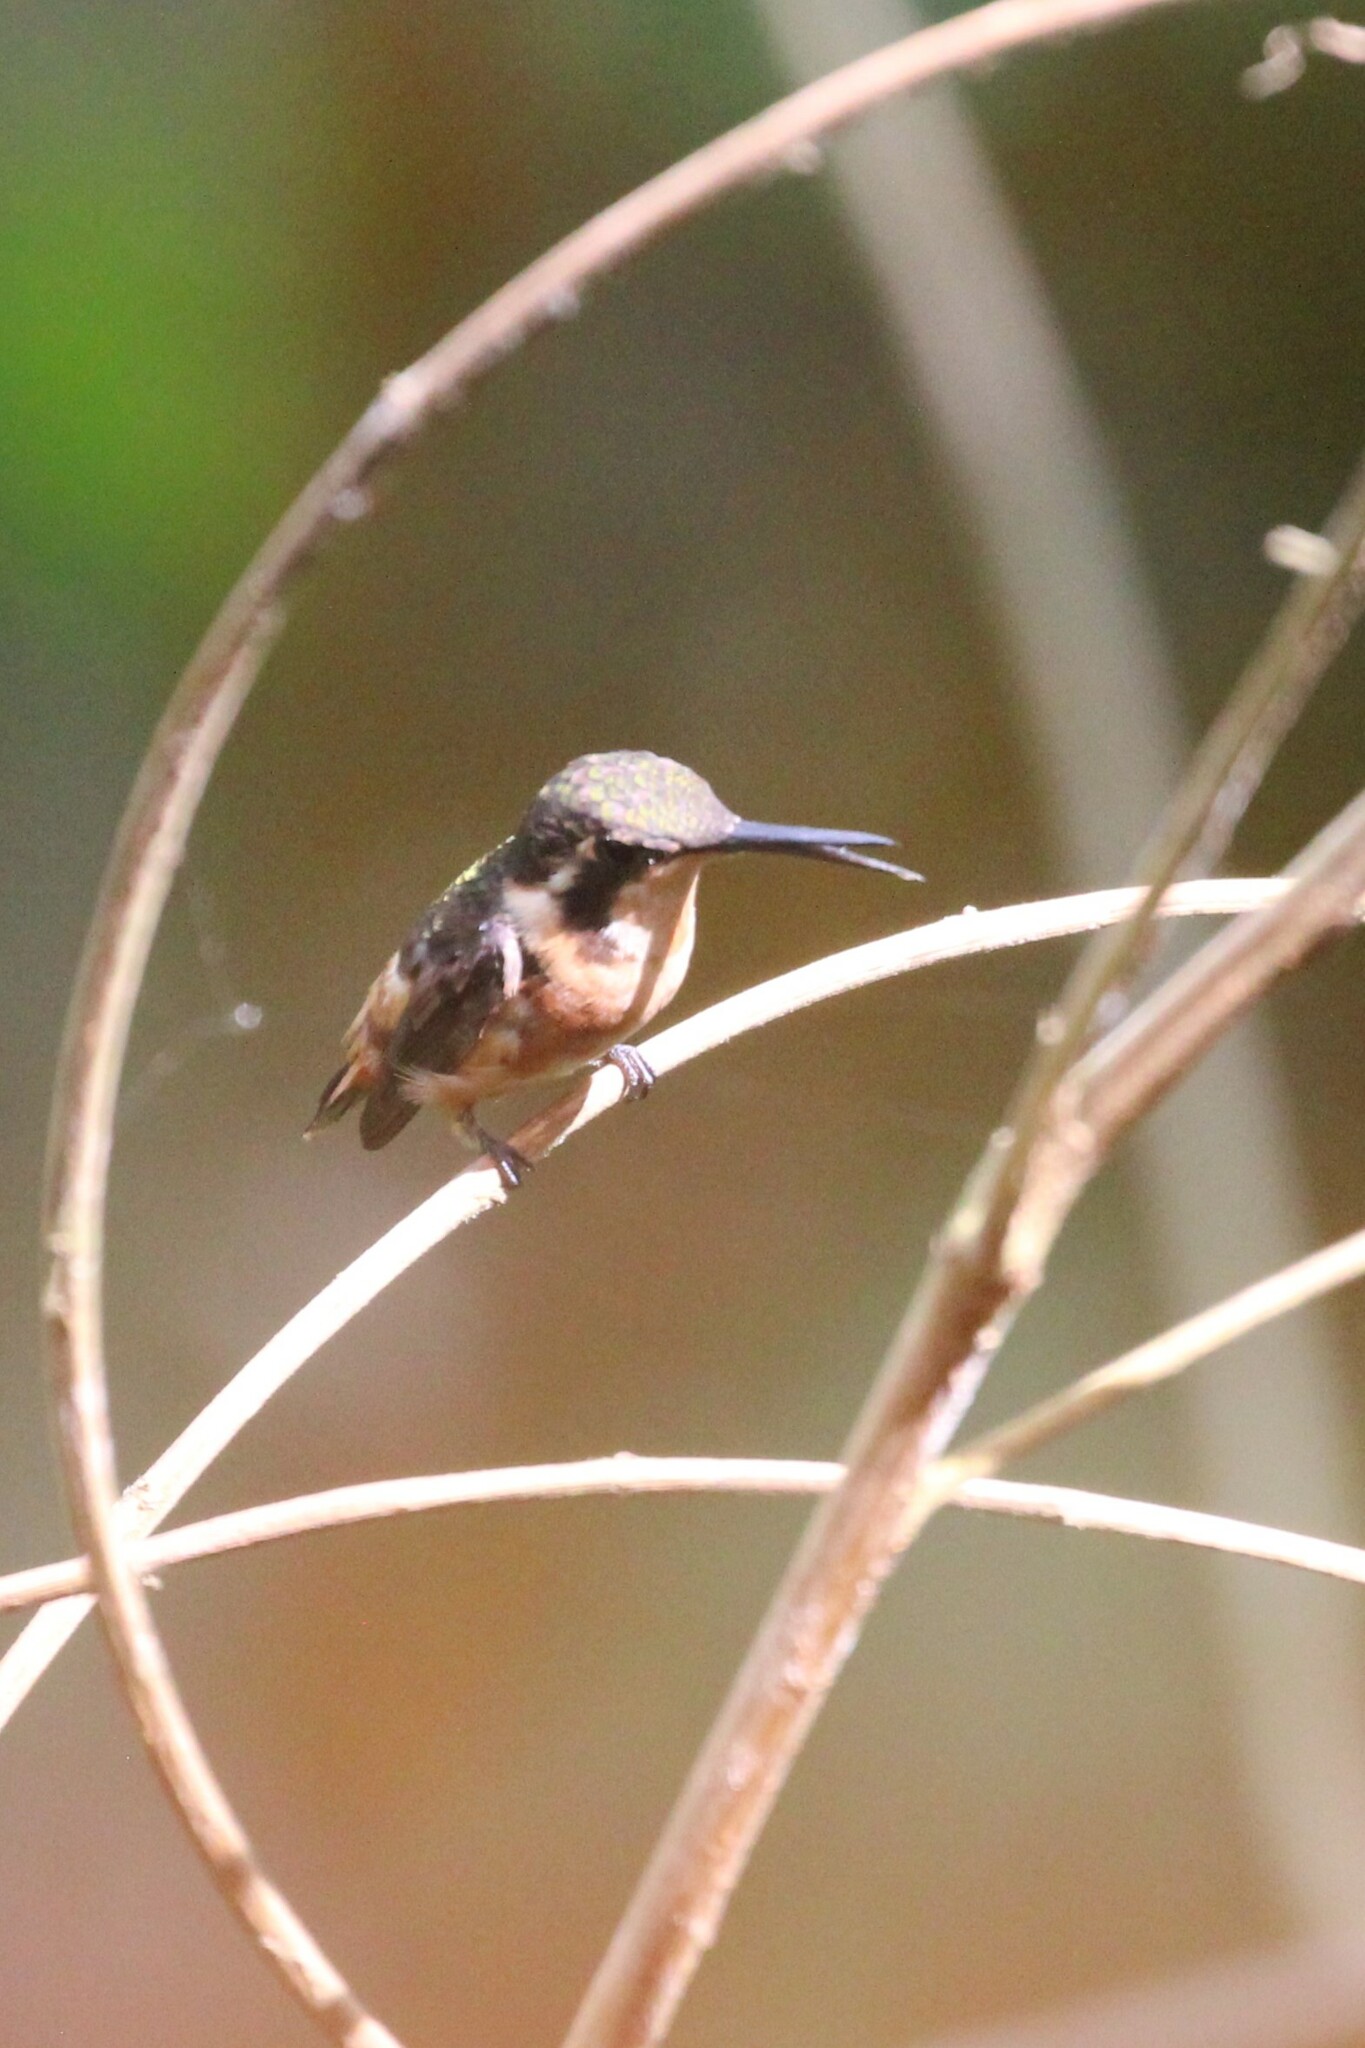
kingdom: Animalia
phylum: Chordata
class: Aves
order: Apodiformes
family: Trochilidae
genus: Calliphlox
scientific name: Calliphlox mitchellii
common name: Purple-throated woodstar
